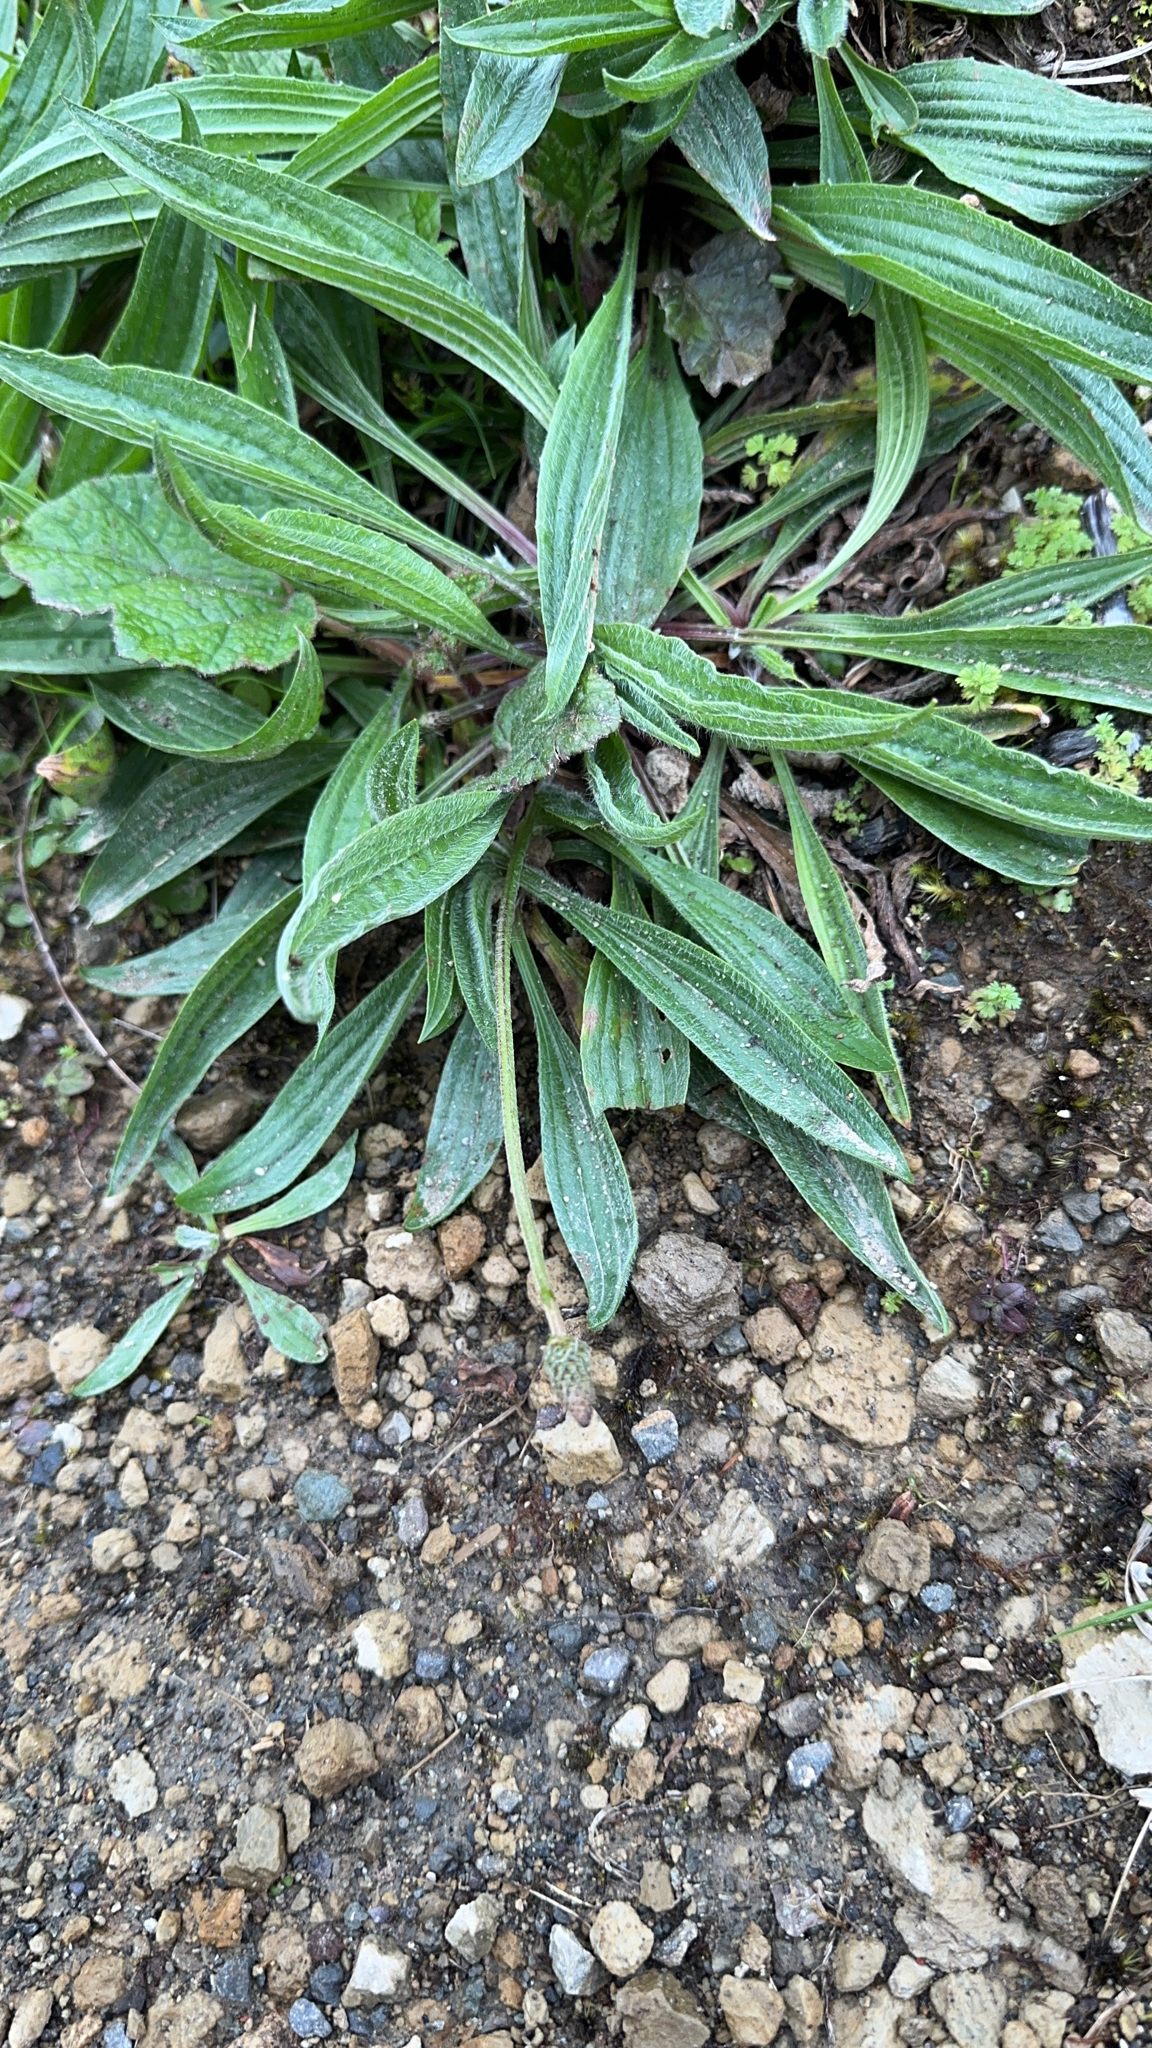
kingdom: Plantae
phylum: Tracheophyta
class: Magnoliopsida
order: Lamiales
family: Plantaginaceae
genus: Plantago
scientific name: Plantago lanceolata
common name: Ribwort plantain
